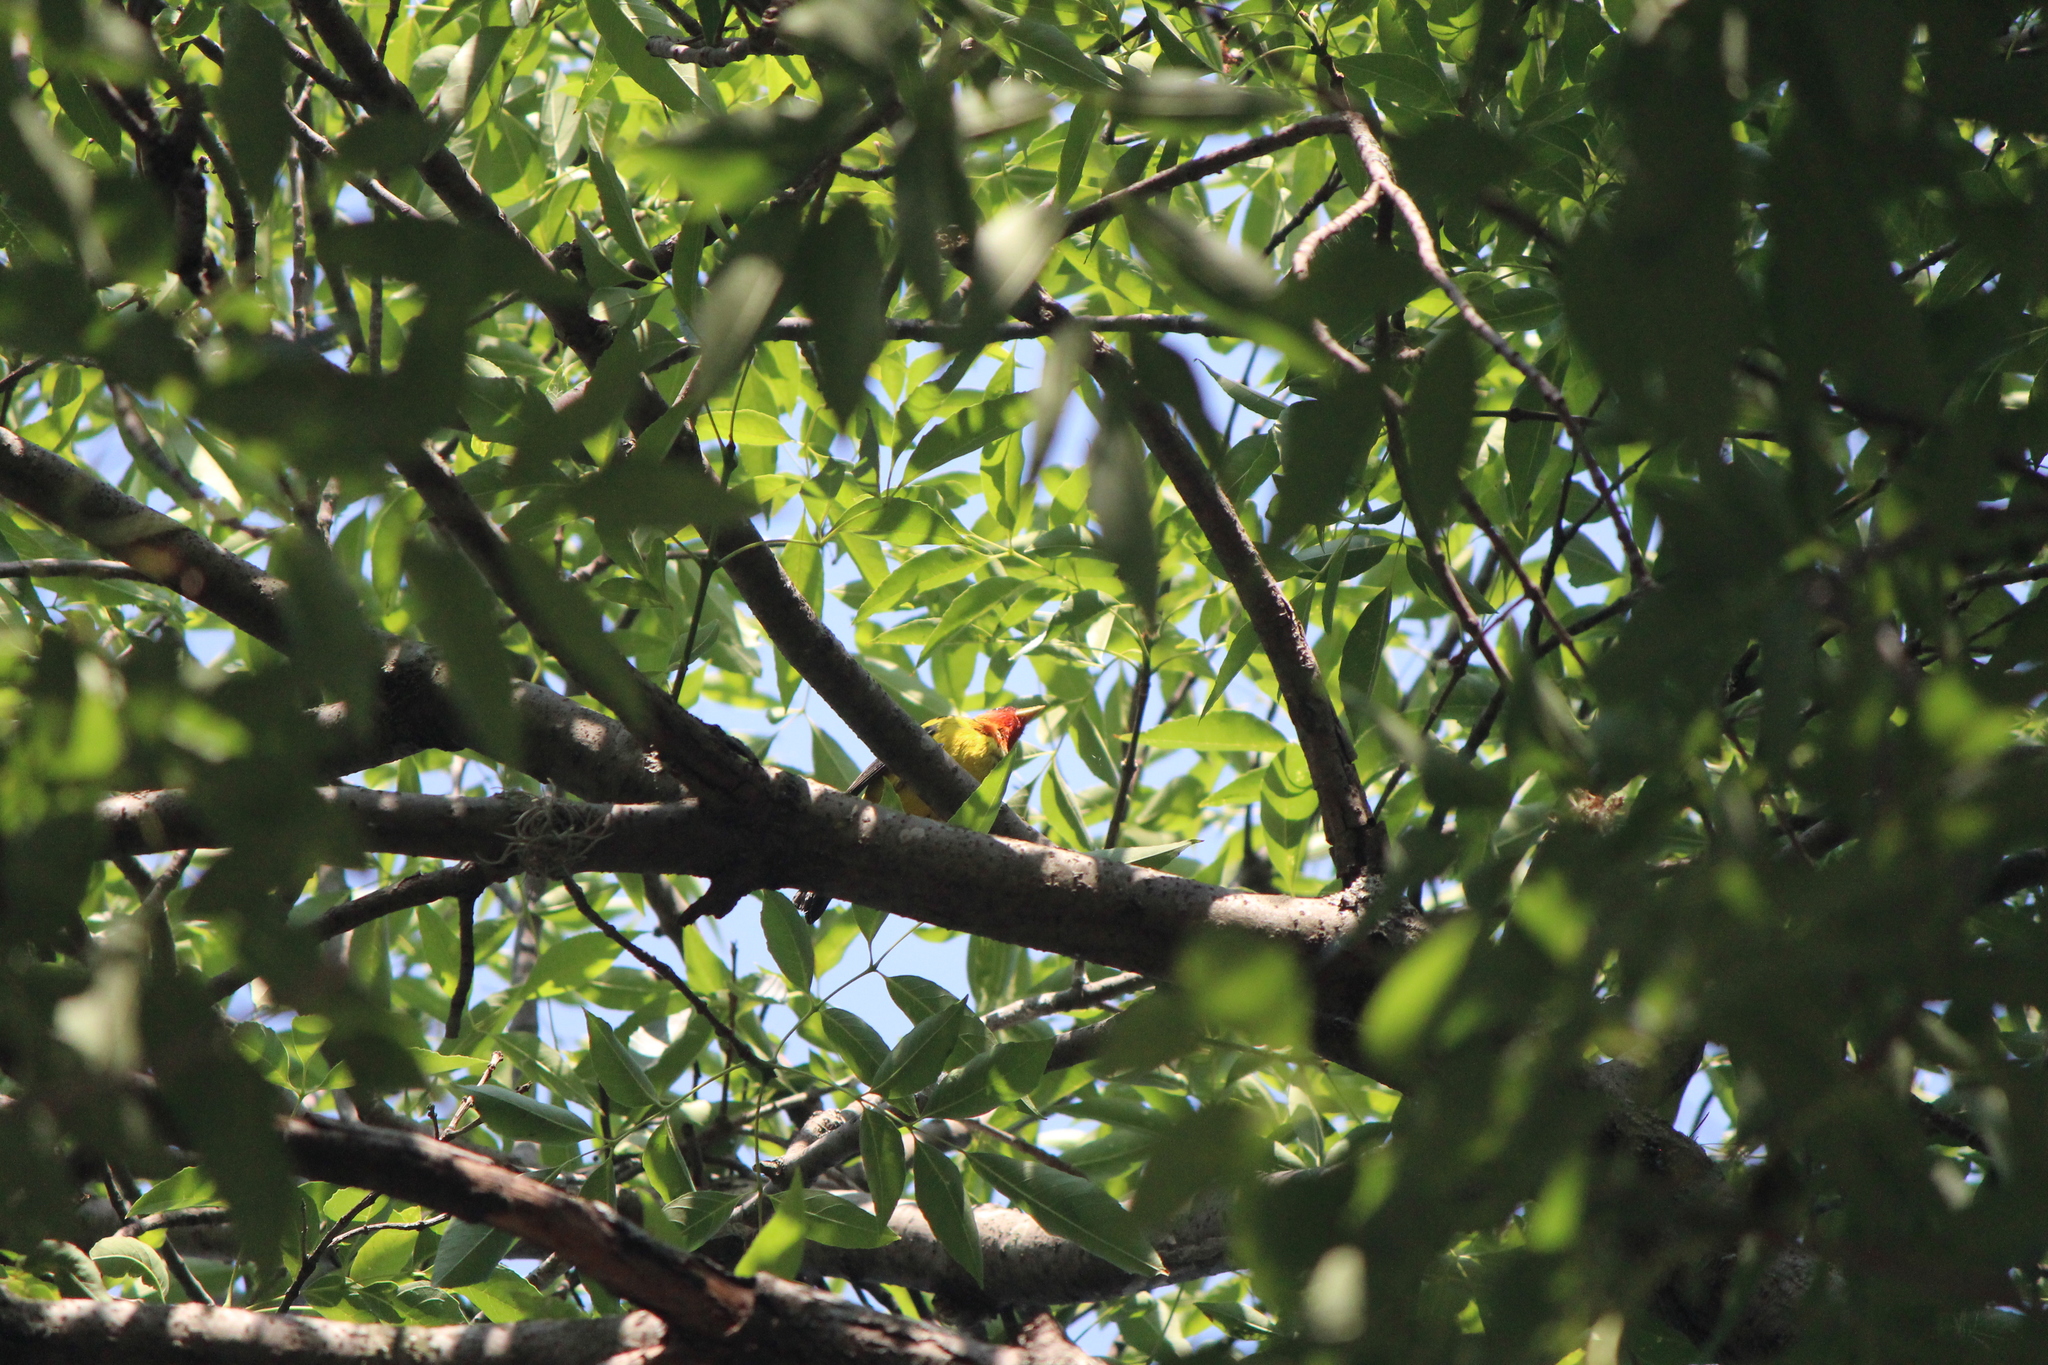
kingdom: Animalia
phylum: Chordata
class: Aves
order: Passeriformes
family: Cardinalidae
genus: Piranga
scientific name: Piranga ludoviciana
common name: Western tanager
